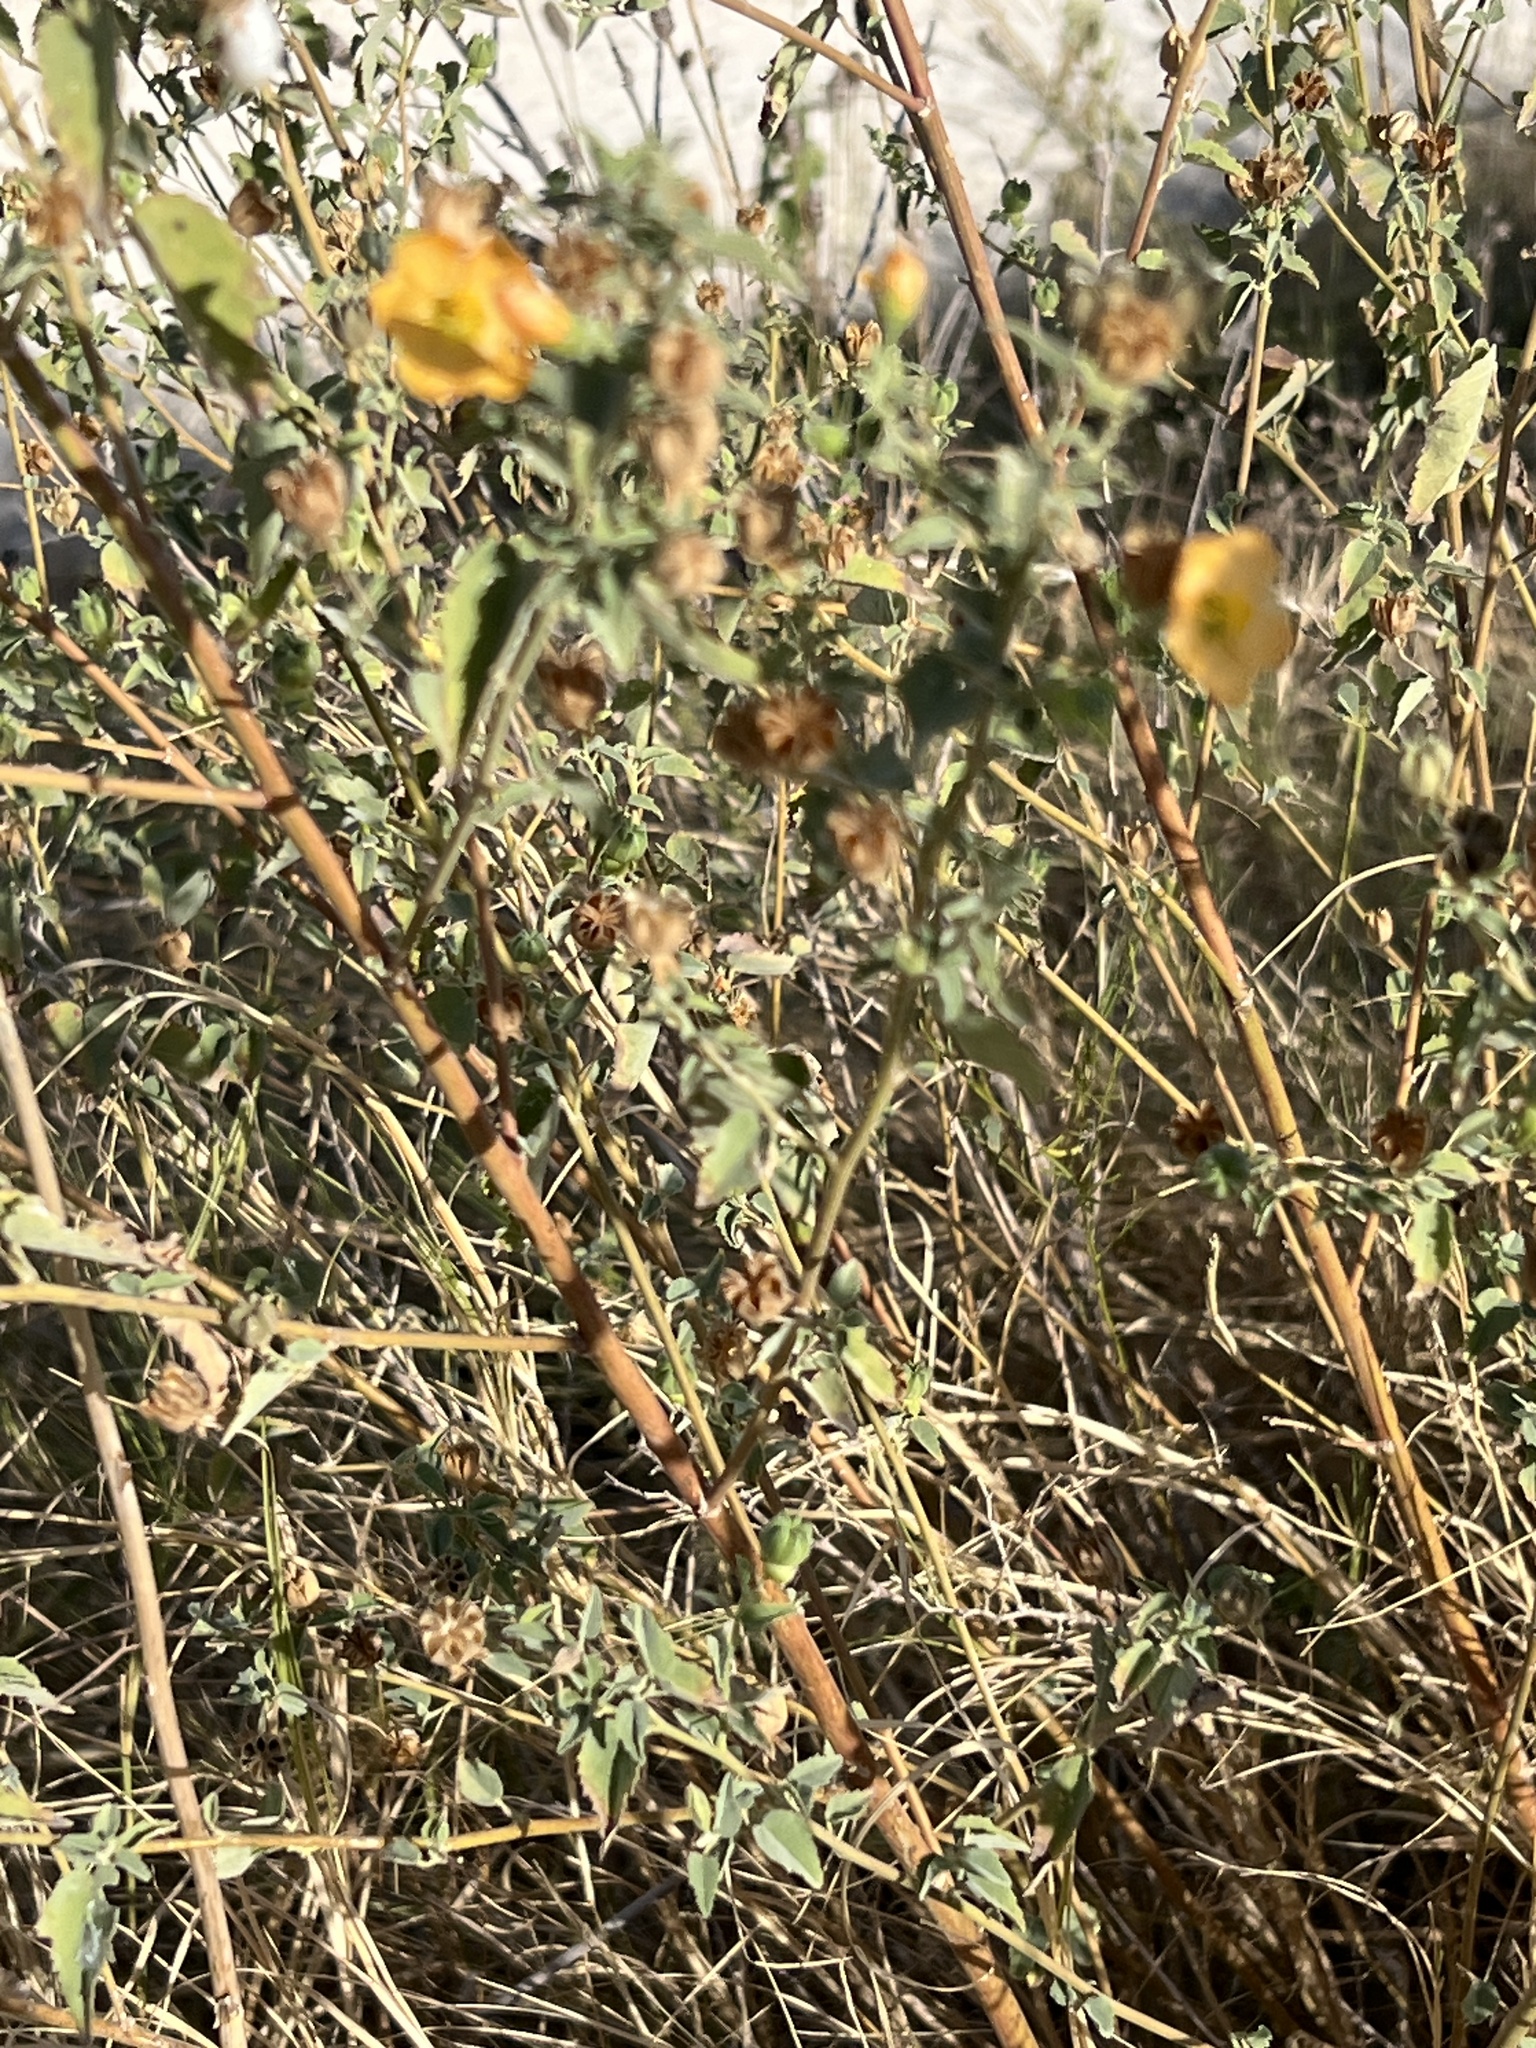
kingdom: Plantae
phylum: Tracheophyta
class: Magnoliopsida
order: Malvales
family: Malvaceae
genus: Abutilon
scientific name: Abutilon fruticosum
